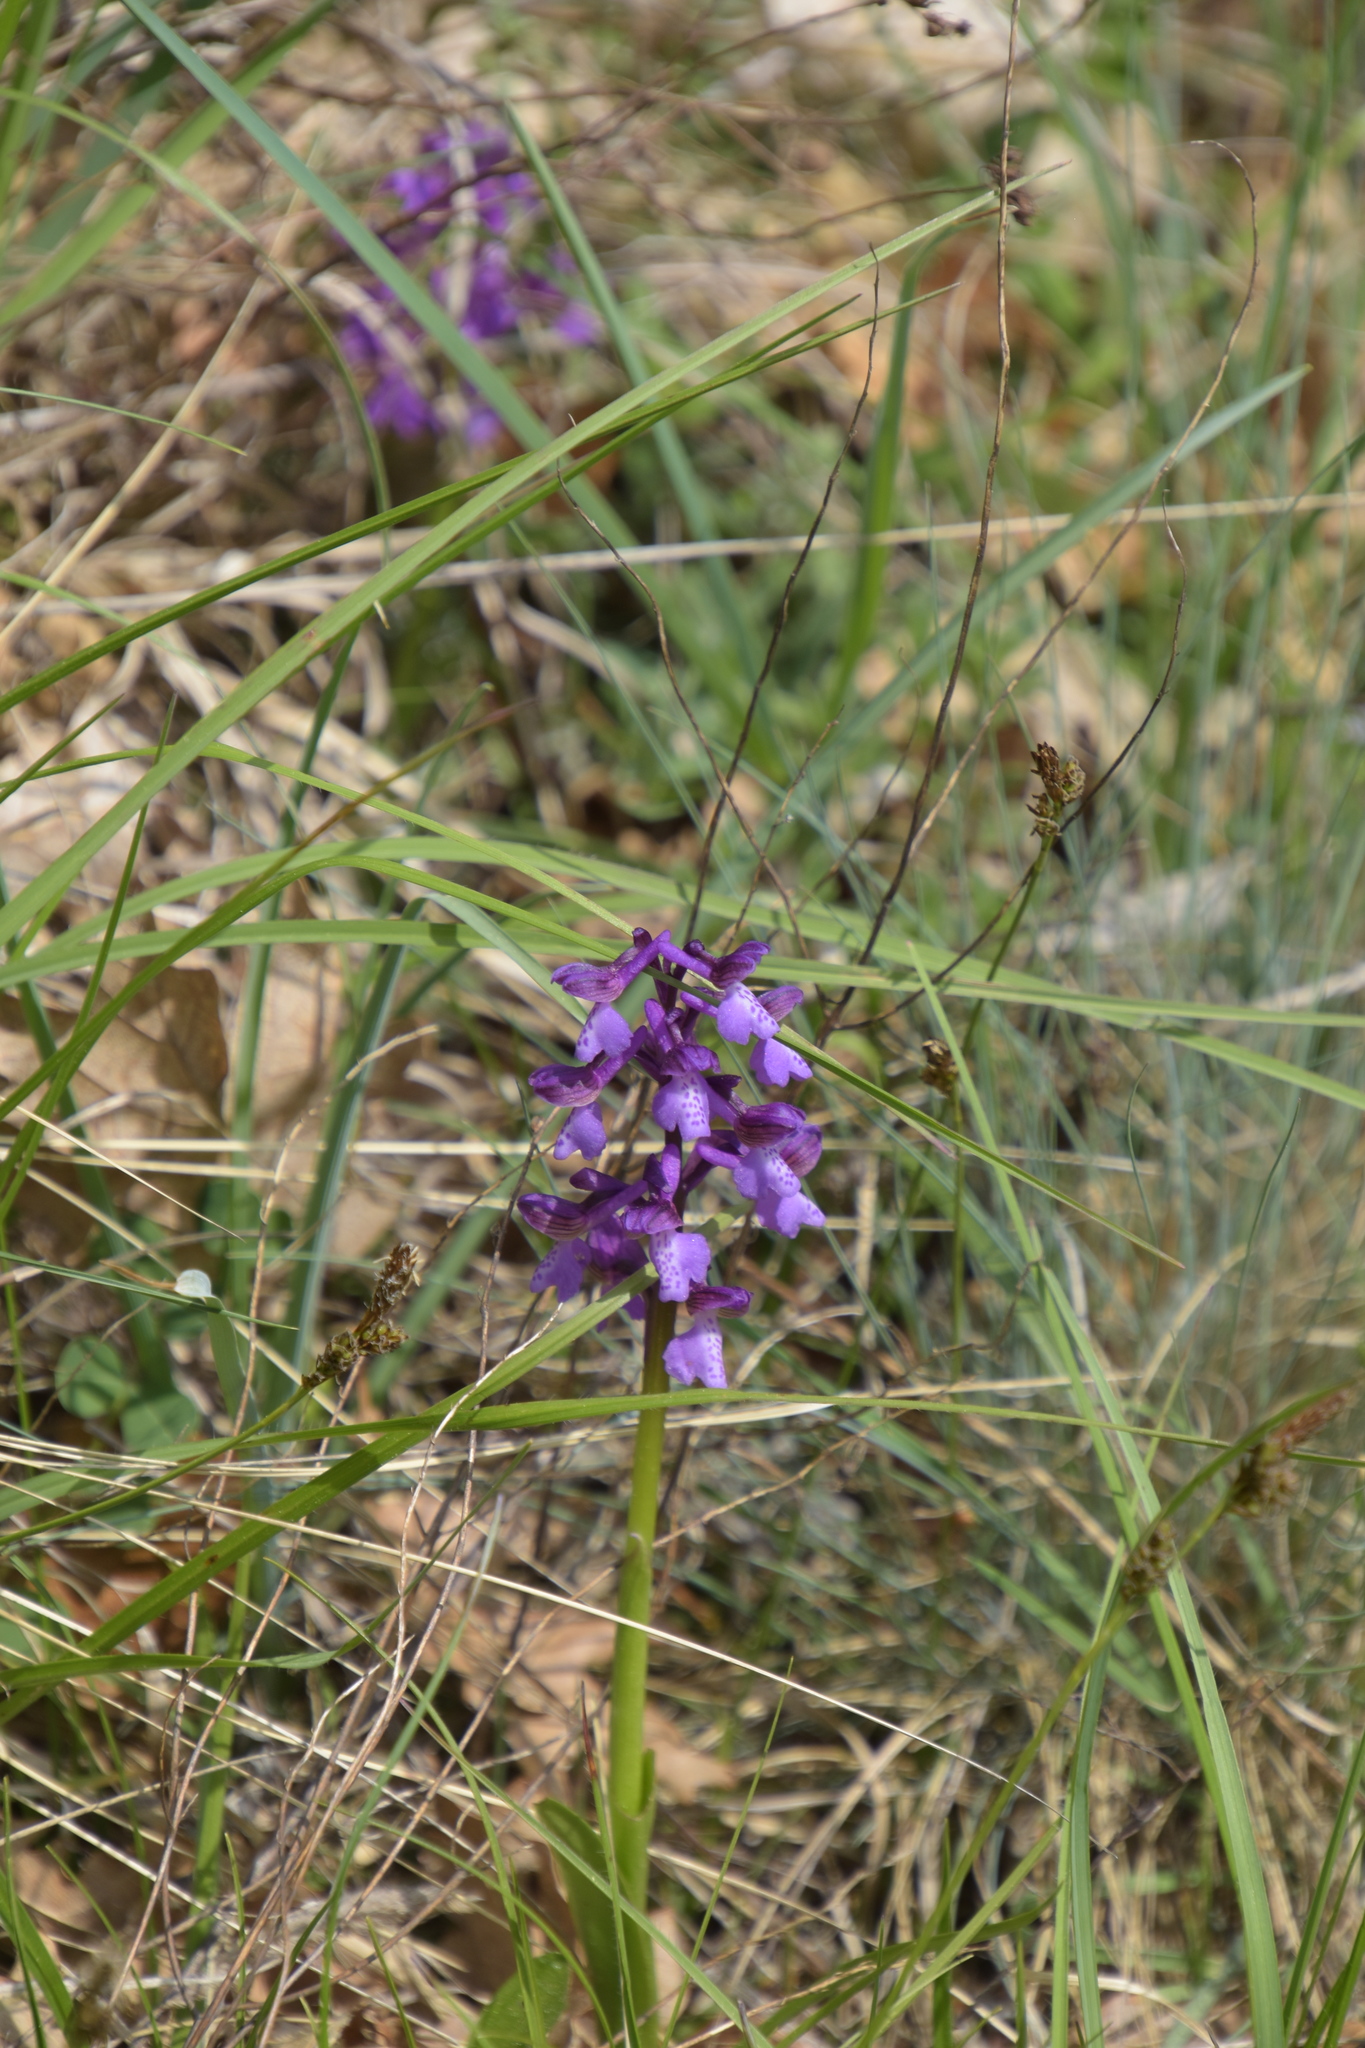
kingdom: Plantae
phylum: Tracheophyta
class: Liliopsida
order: Asparagales
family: Orchidaceae
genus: Anacamptis
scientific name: Anacamptis morio
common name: Green-winged orchid
